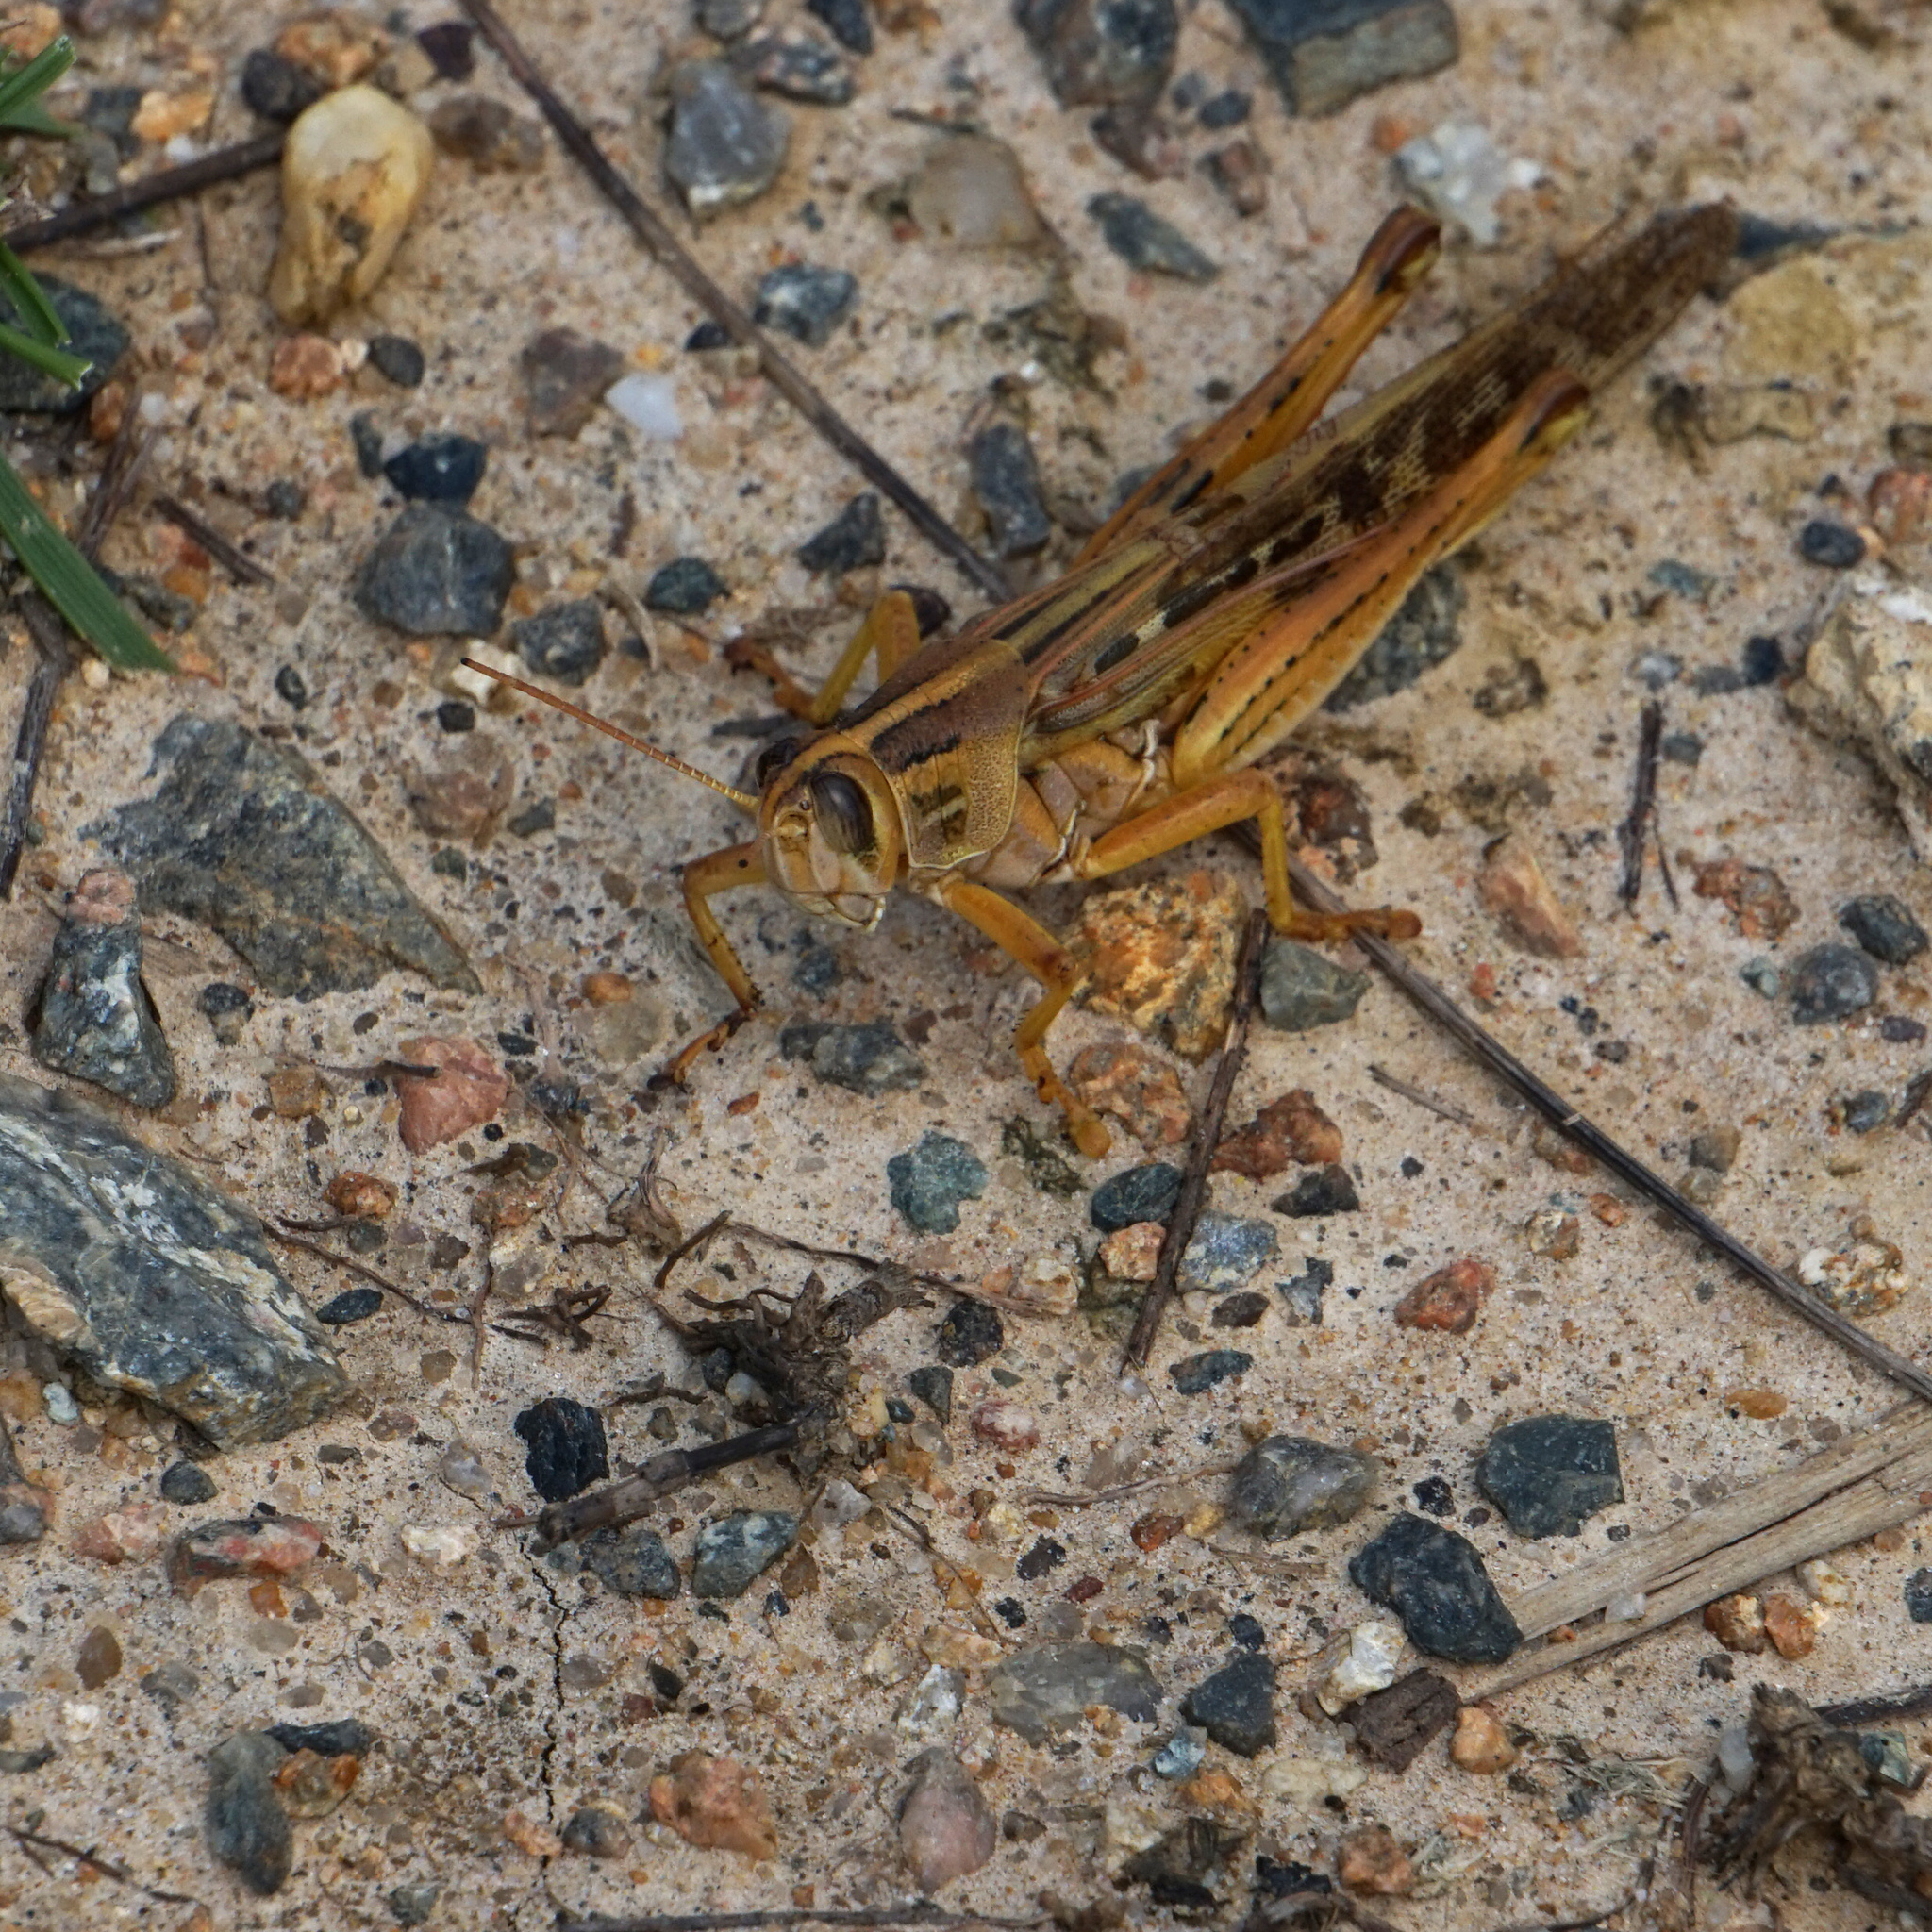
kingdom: Animalia
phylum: Arthropoda
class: Insecta
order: Orthoptera
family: Acrididae
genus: Schistocerca
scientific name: Schistocerca americana
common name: American bird locust
